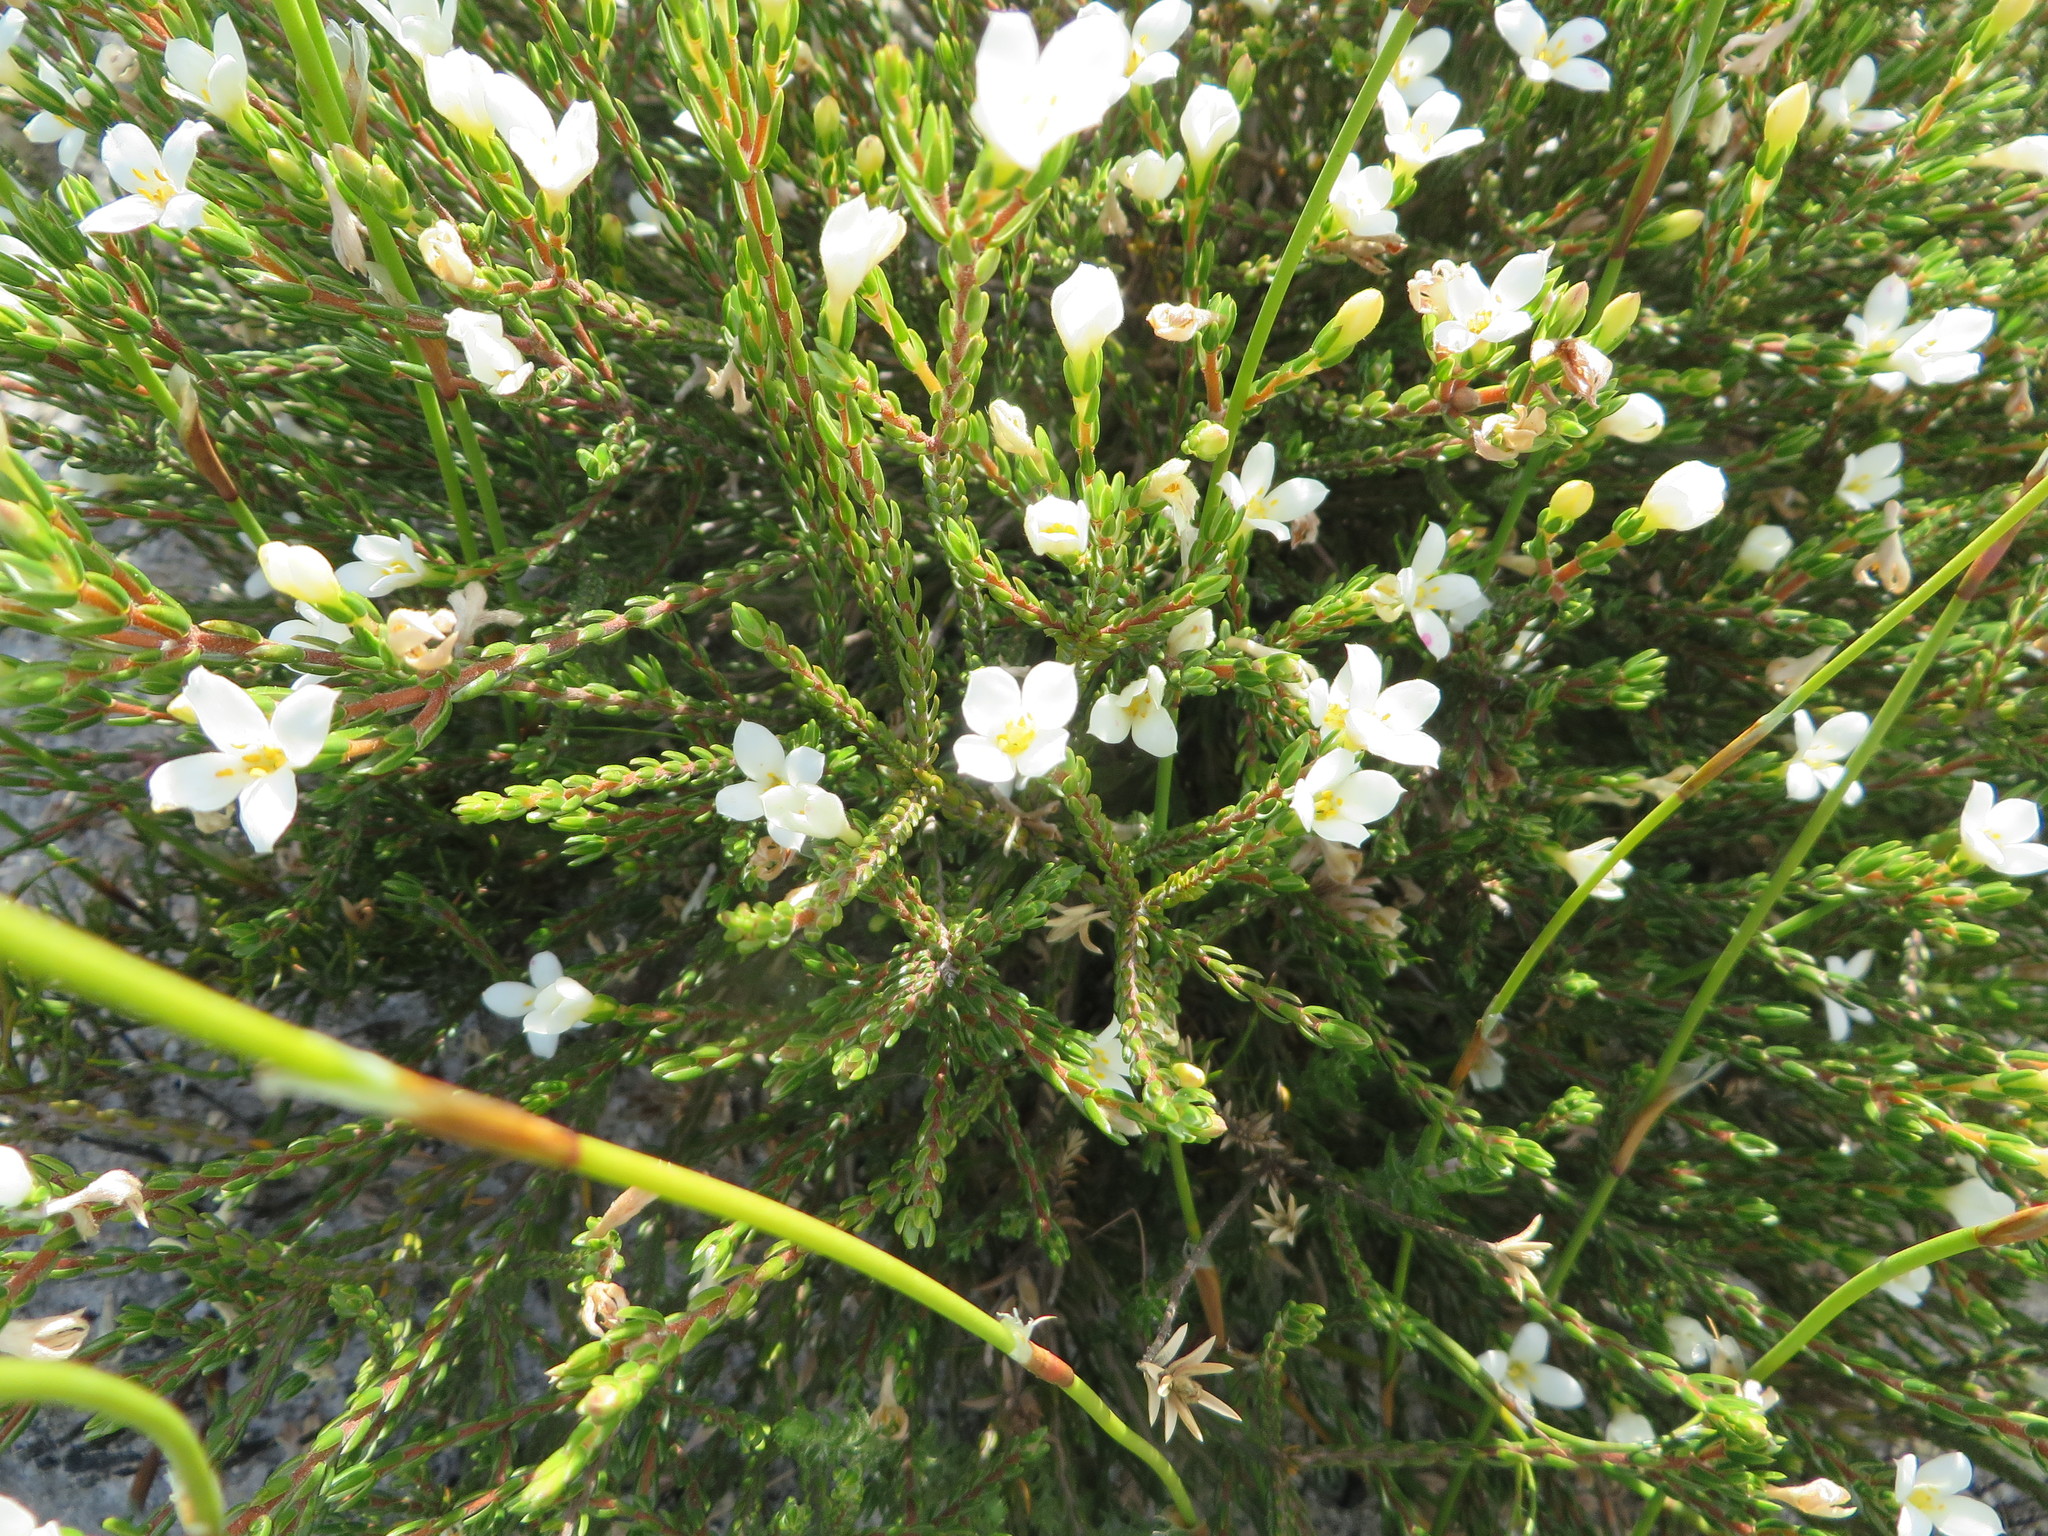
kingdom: Plantae
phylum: Tracheophyta
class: Magnoliopsida
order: Malvales
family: Thymelaeaceae
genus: Lachnaea
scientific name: Lachnaea grandiflora
